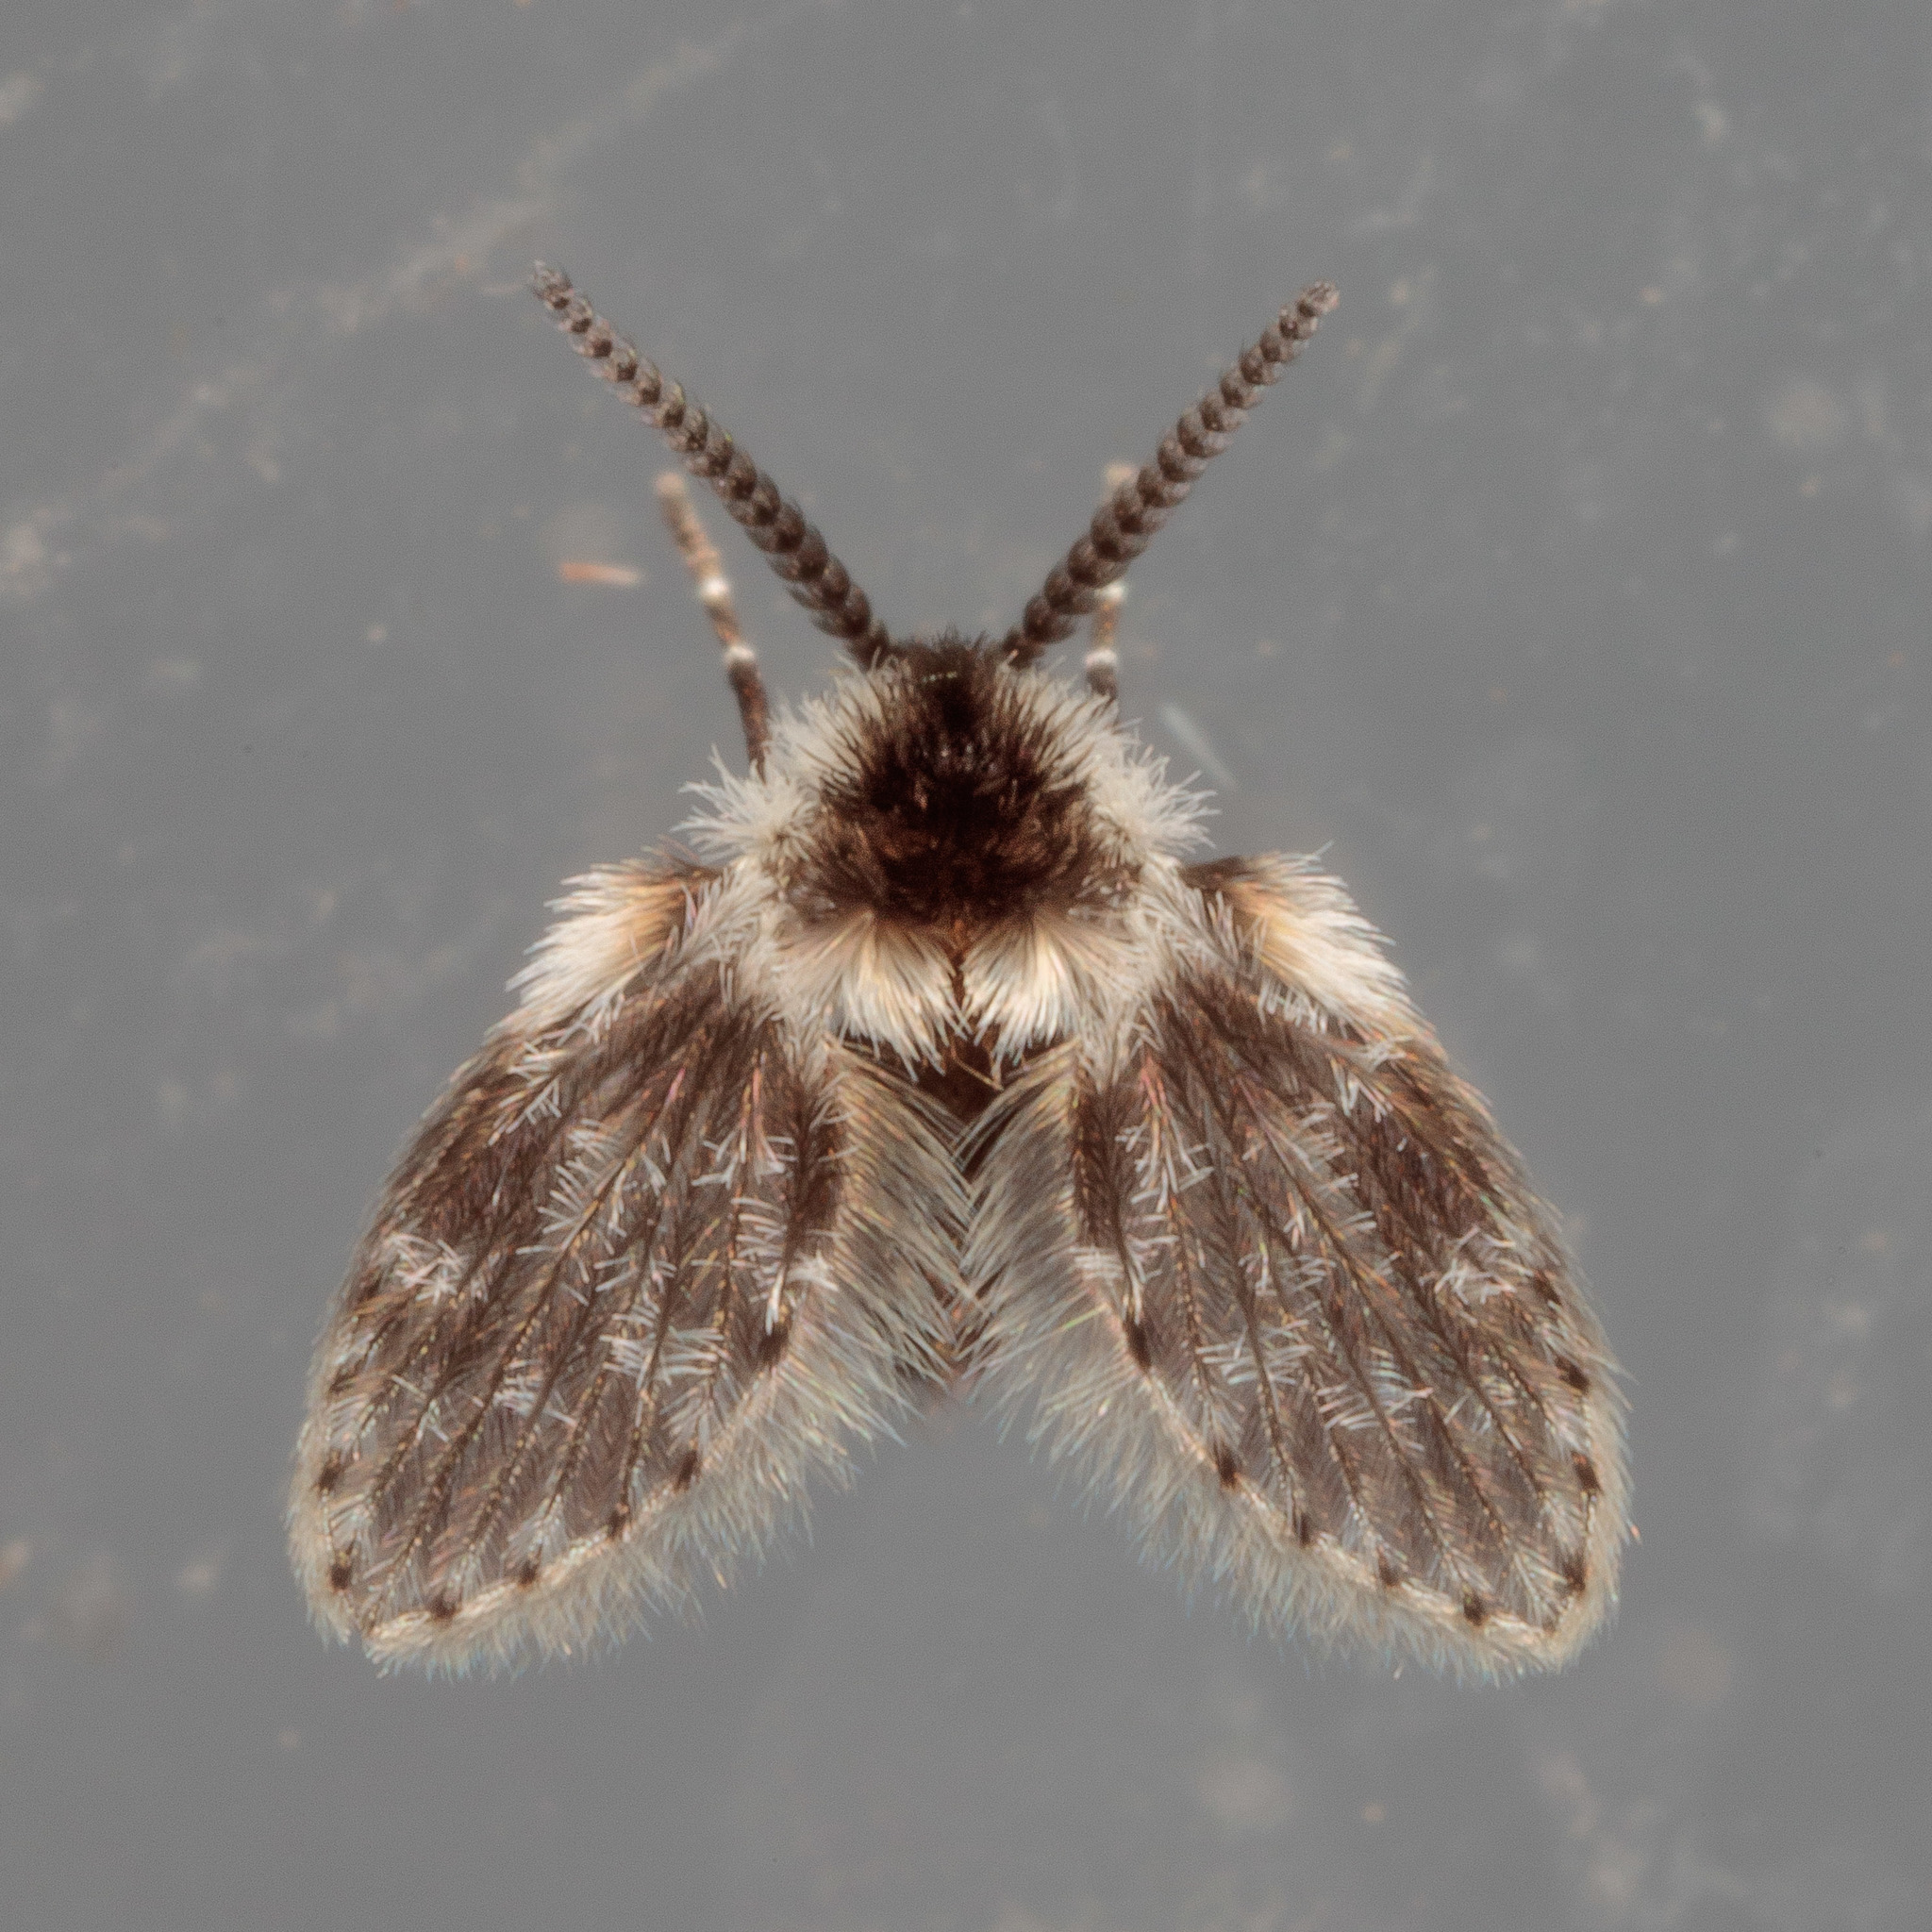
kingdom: Animalia
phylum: Arthropoda
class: Insecta
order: Diptera
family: Psychodidae
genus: Lepiseodina
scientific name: Lepiseodina
